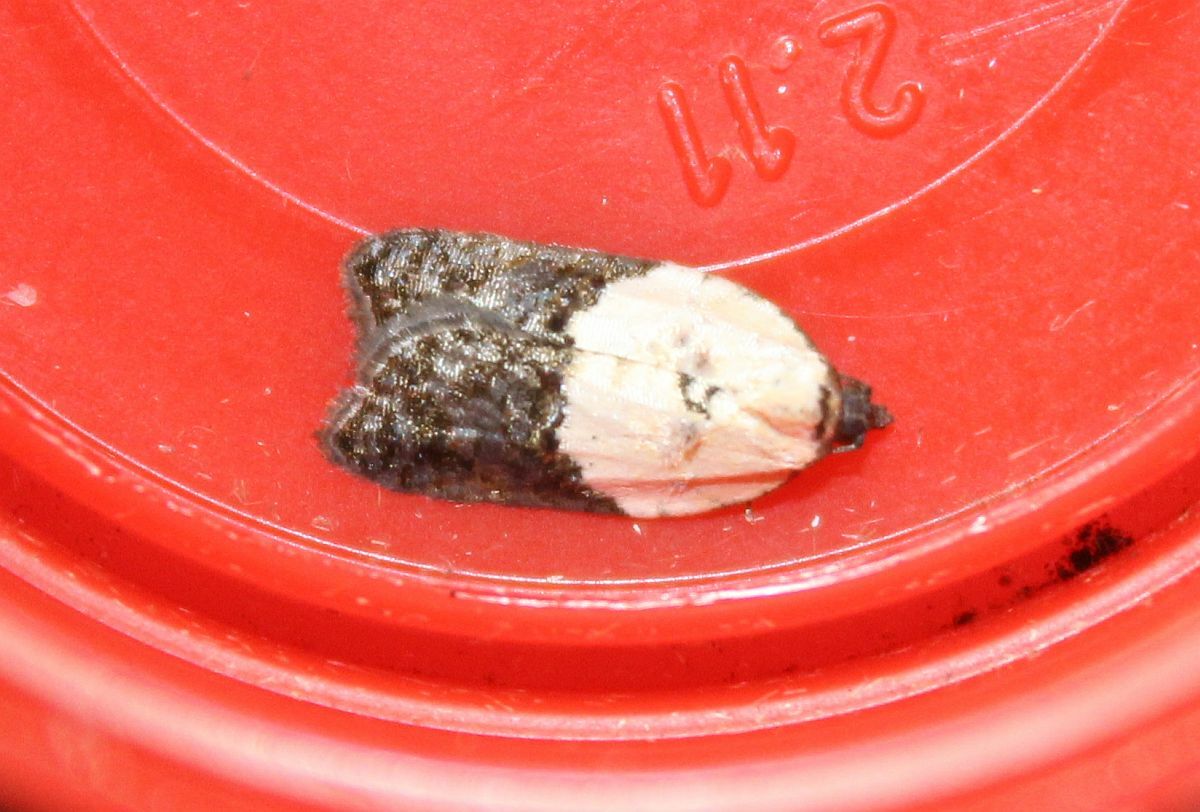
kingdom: Animalia
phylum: Arthropoda
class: Insecta
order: Lepidoptera
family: Tortricidae
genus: Acleris
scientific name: Acleris variegana
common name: Garden rose tortrix
